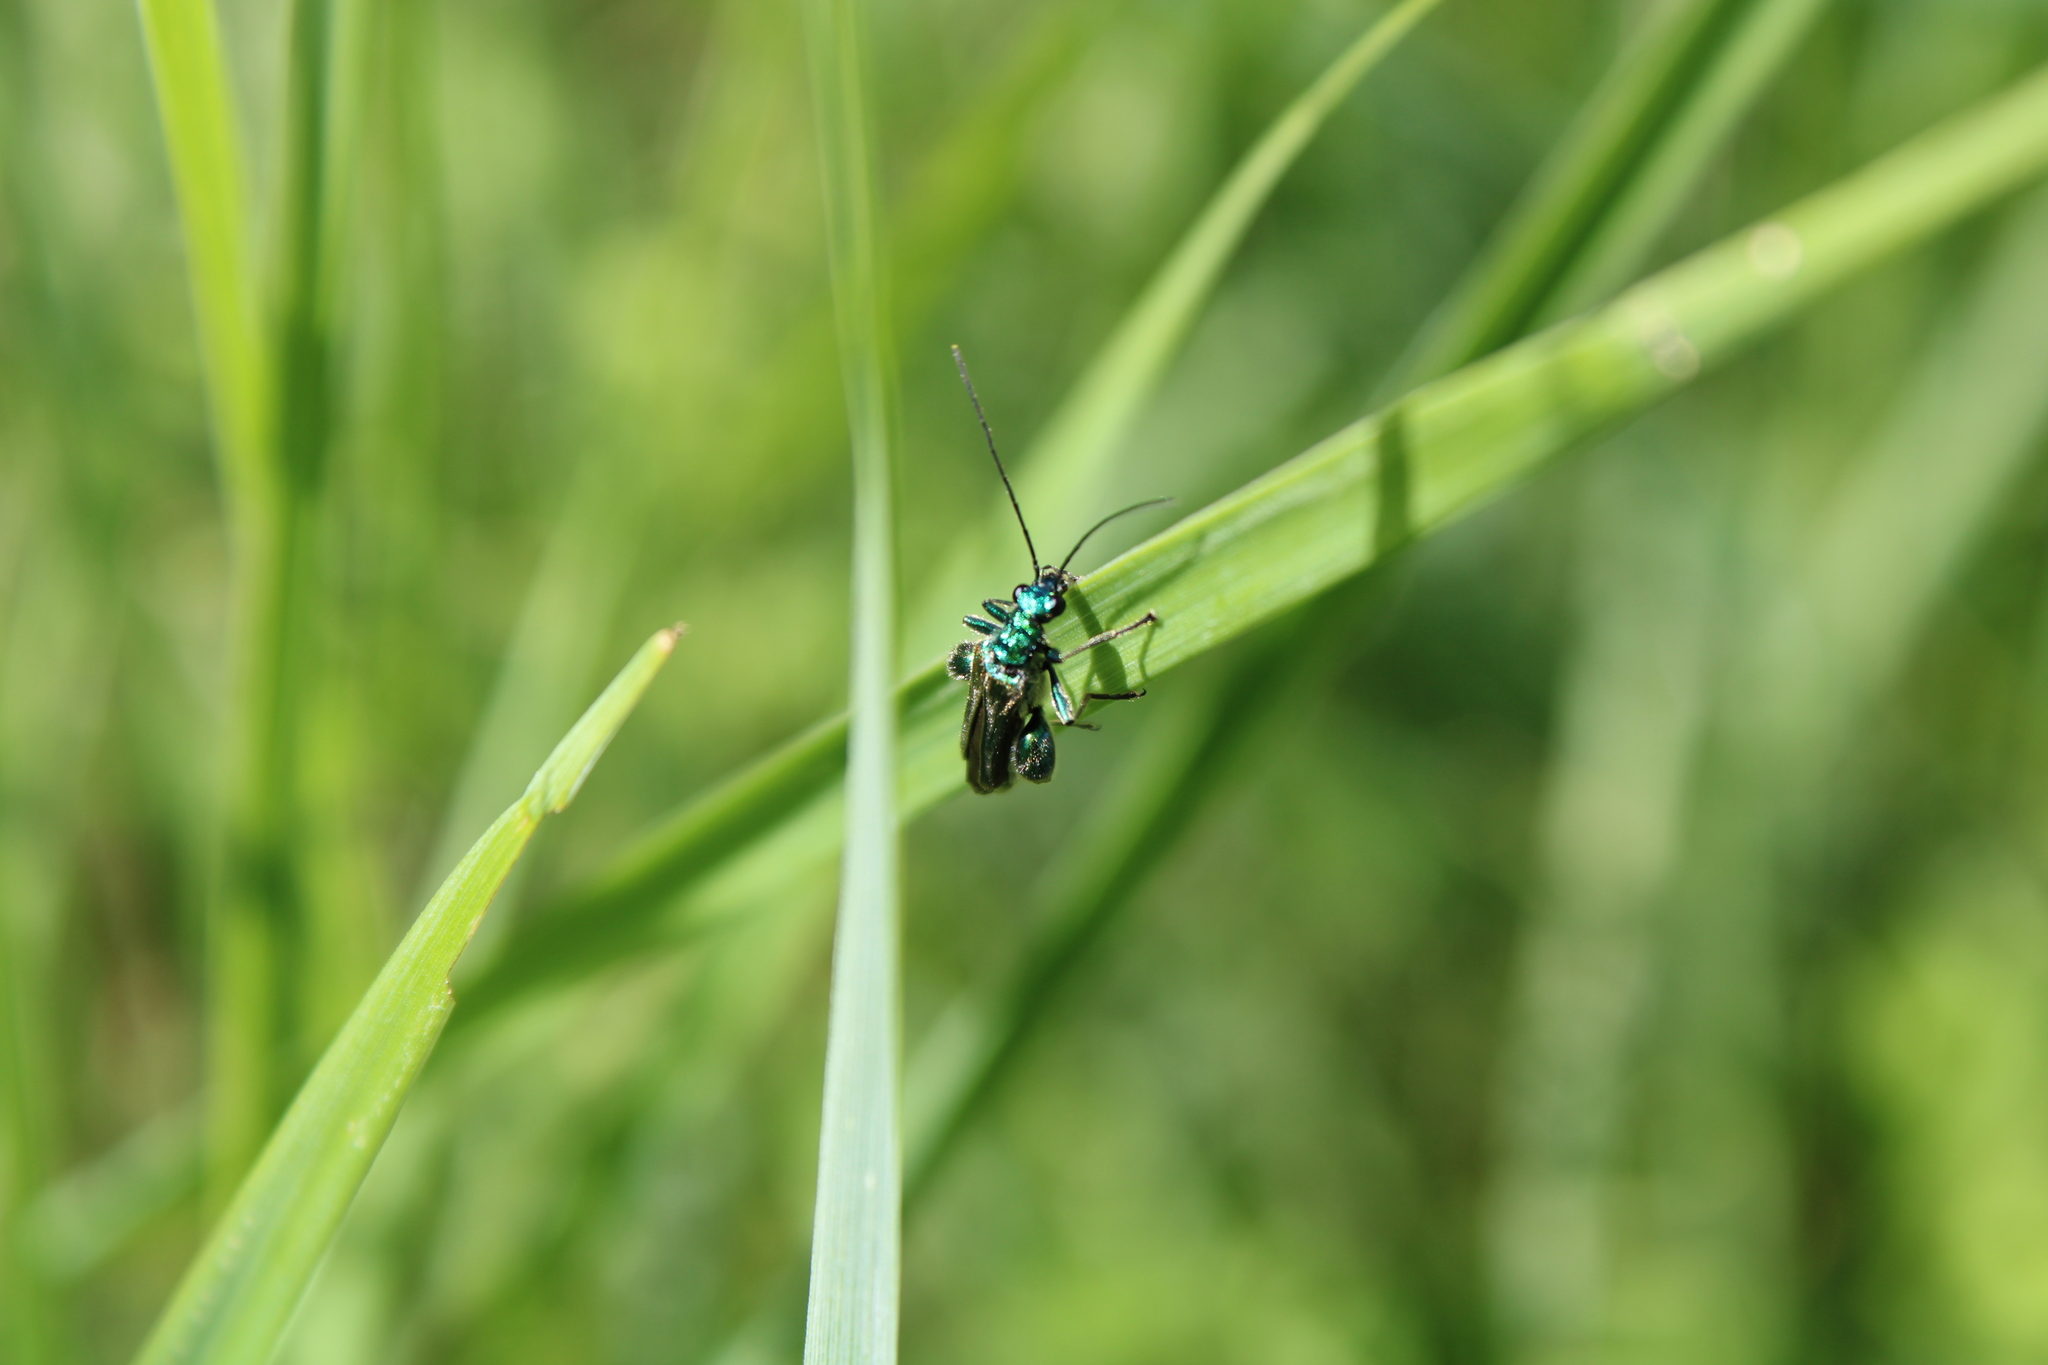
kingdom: Animalia
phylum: Arthropoda
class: Insecta
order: Coleoptera
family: Oedemeridae
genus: Oedemera
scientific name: Oedemera nobilis
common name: Swollen-thighed beetle
